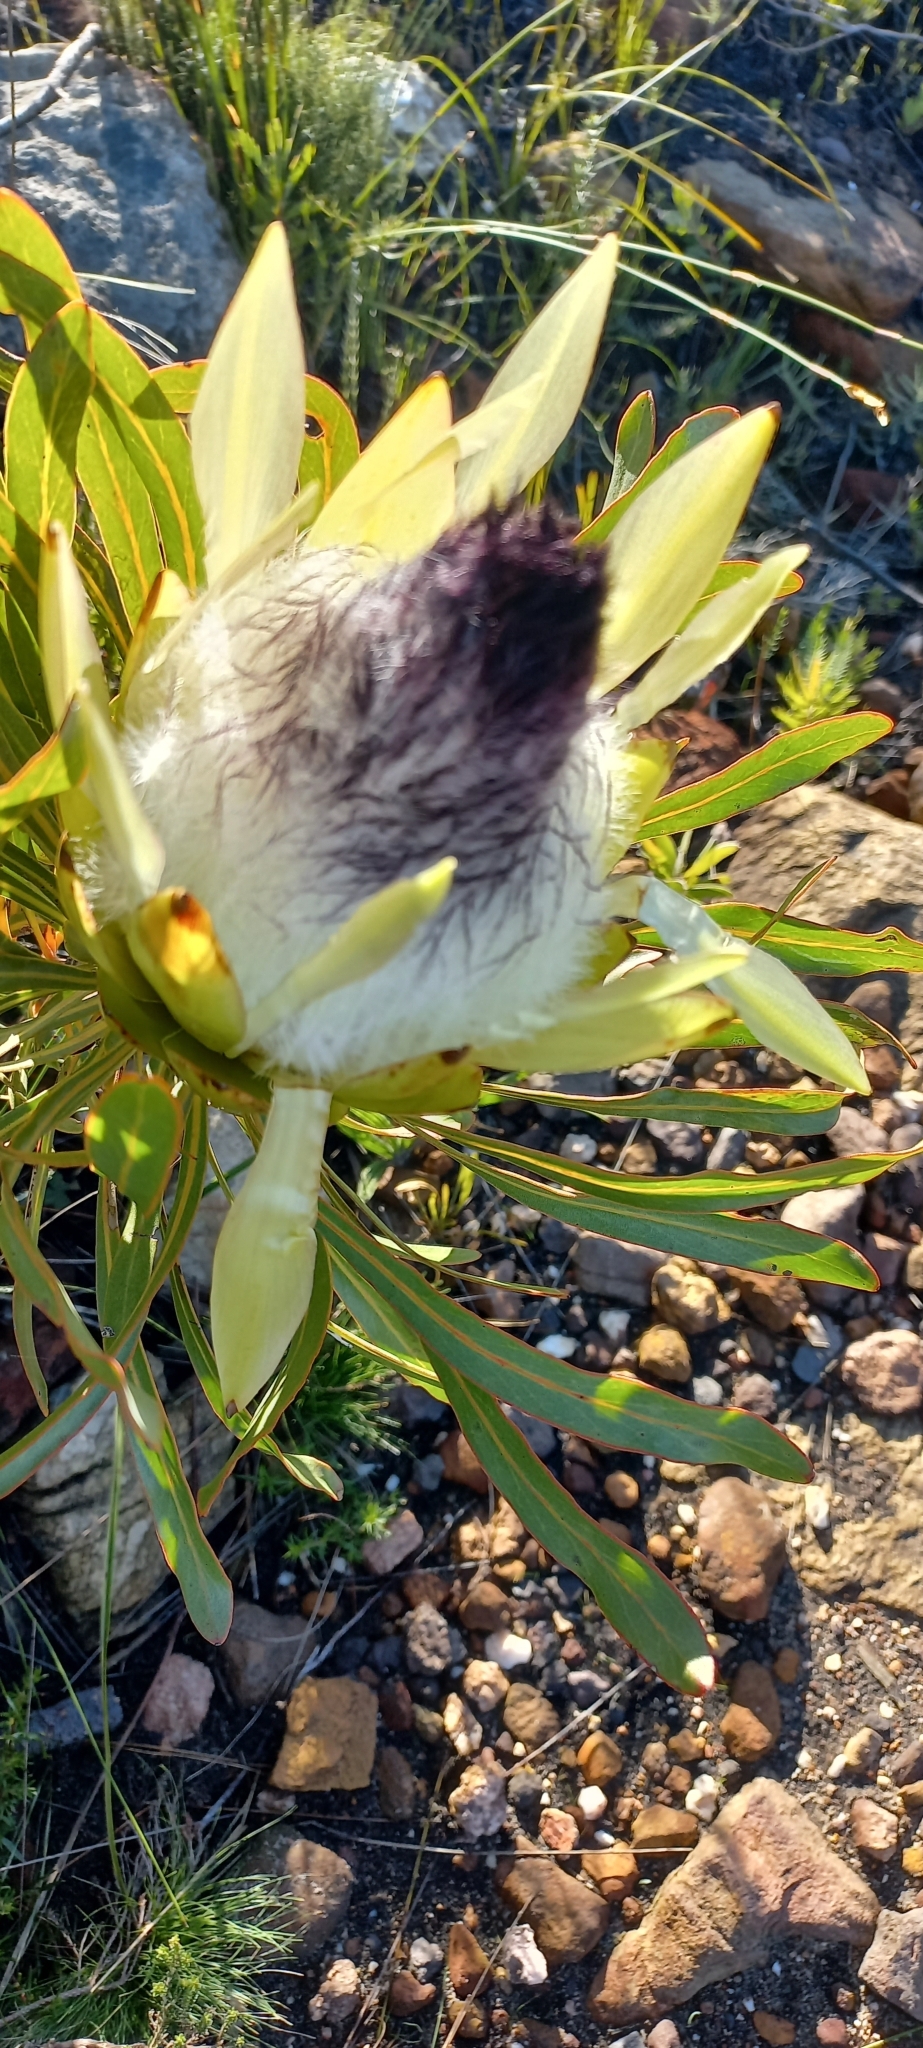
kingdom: Plantae
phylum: Tracheophyta
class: Magnoliopsida
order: Proteales
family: Proteaceae
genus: Protea
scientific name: Protea longifolia
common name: Long-leaf sugarbush
